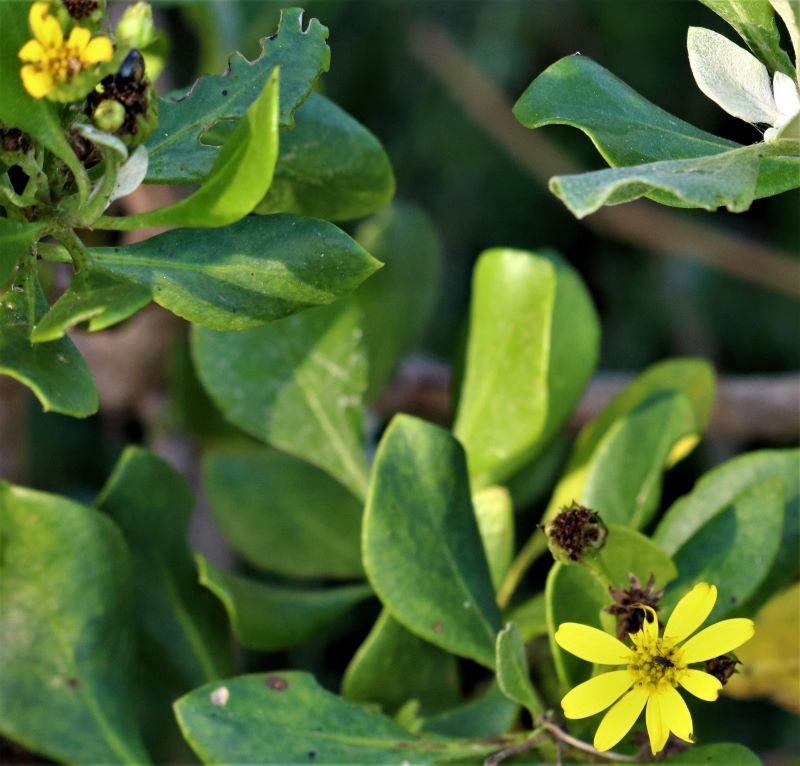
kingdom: Plantae
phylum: Tracheophyta
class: Magnoliopsida
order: Asterales
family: Asteraceae
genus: Osteospermum
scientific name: Osteospermum moniliferum
